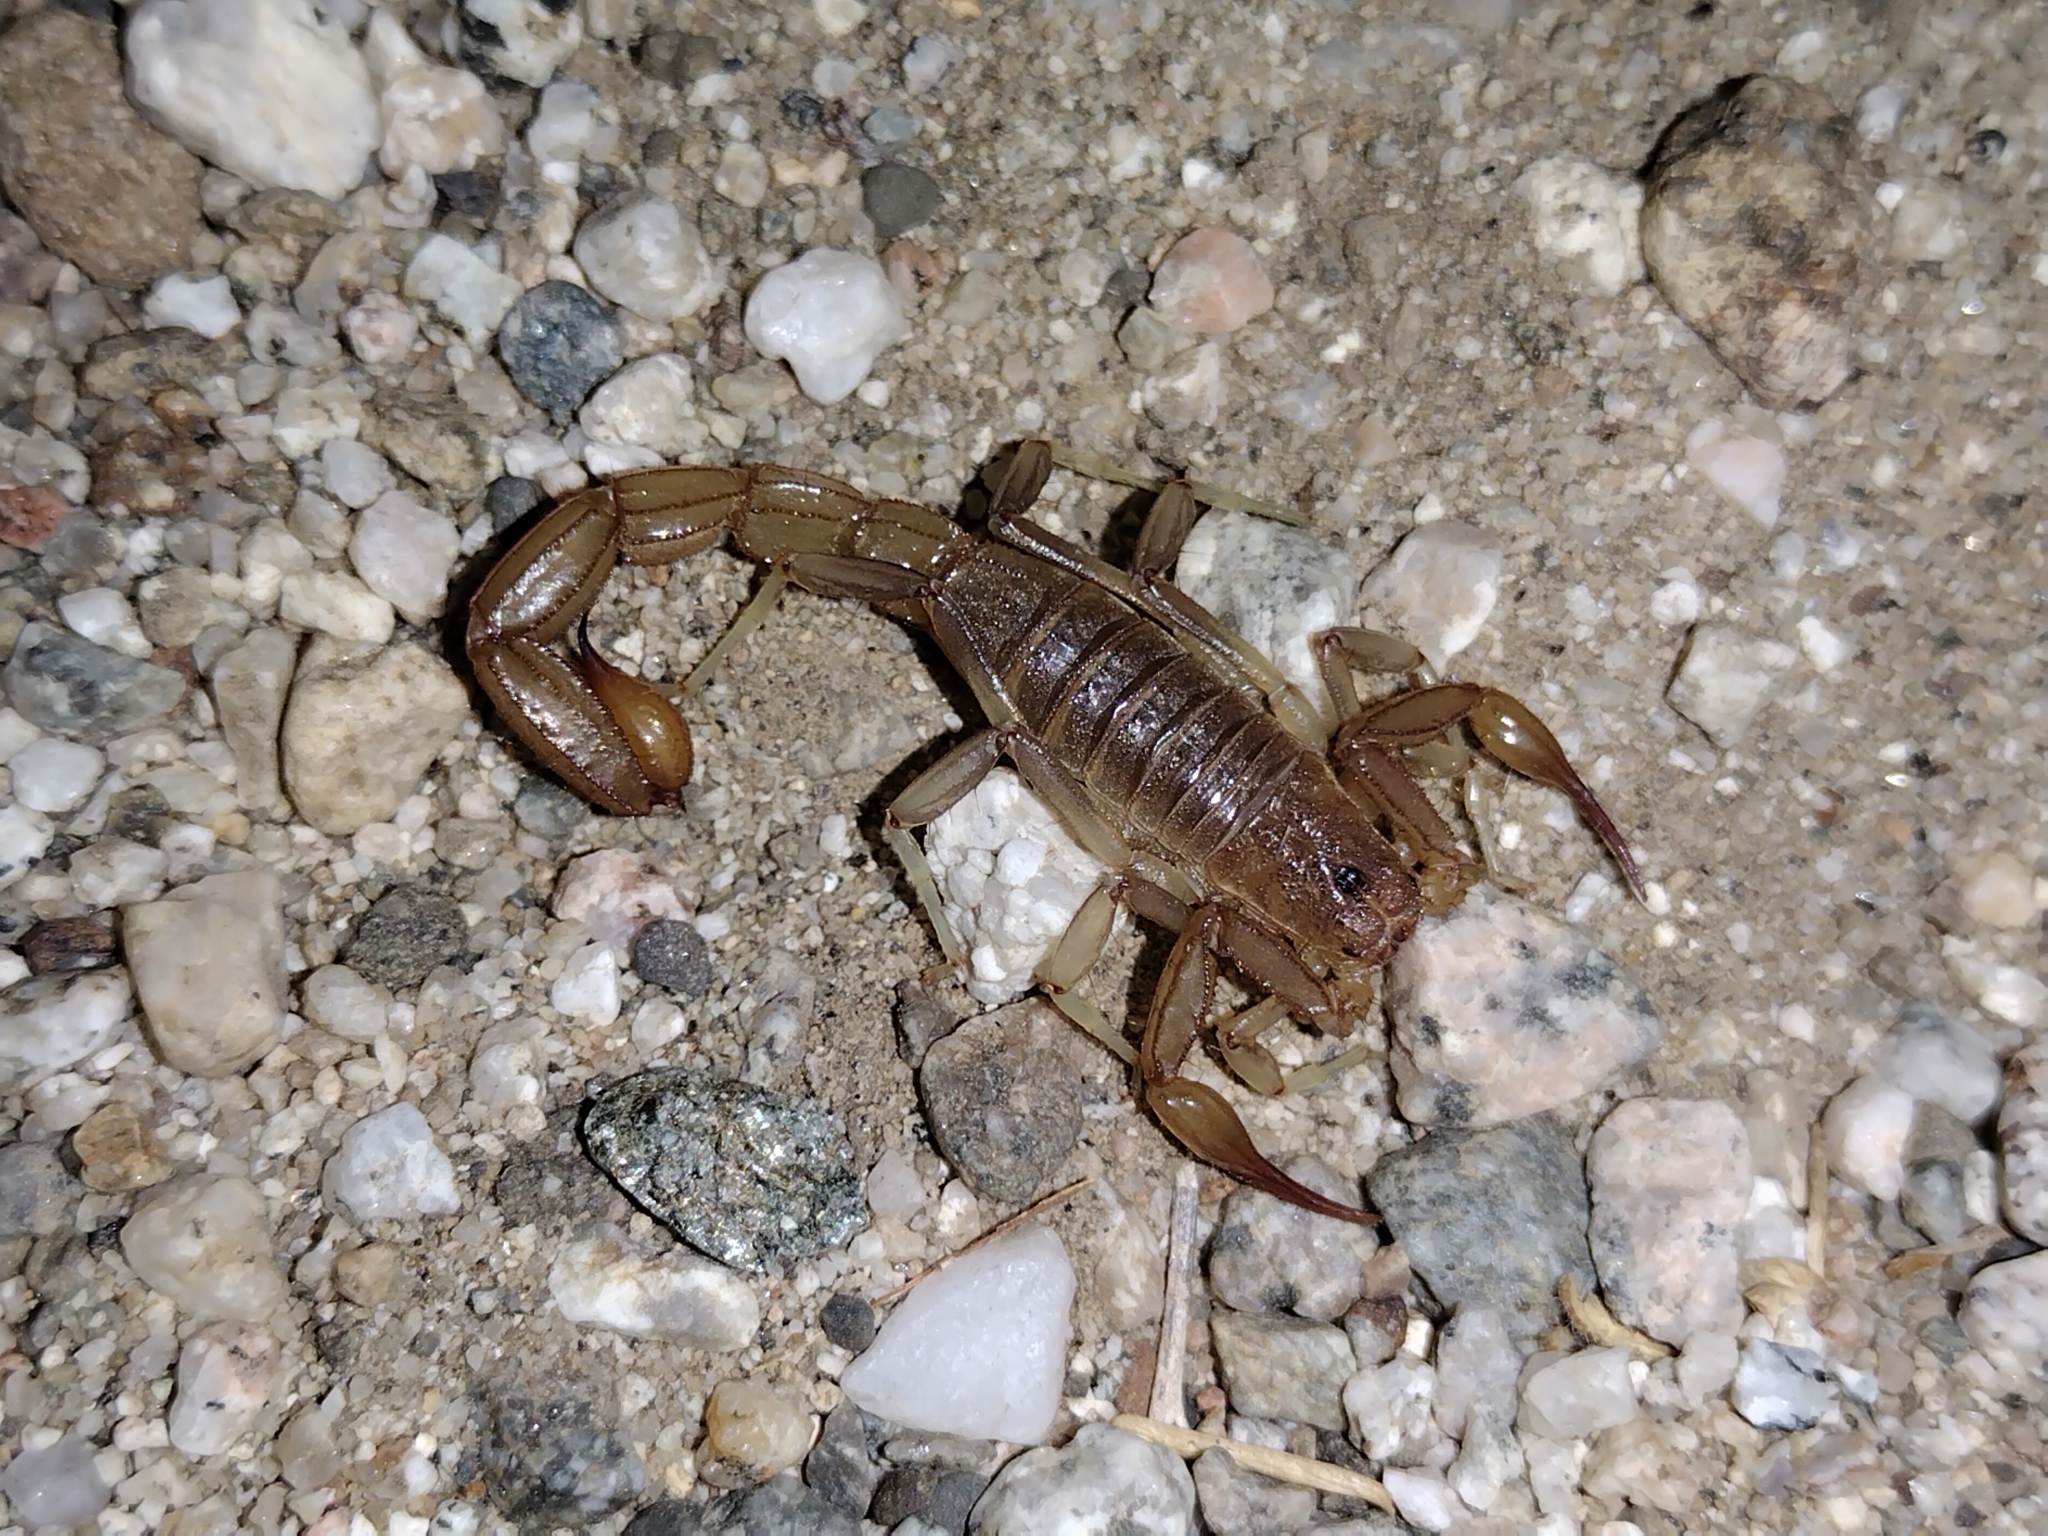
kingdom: Animalia
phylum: Arthropoda
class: Arachnida
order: Scorpiones
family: Vaejovidae
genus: Paravaejovis
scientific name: Paravaejovis puritanus
